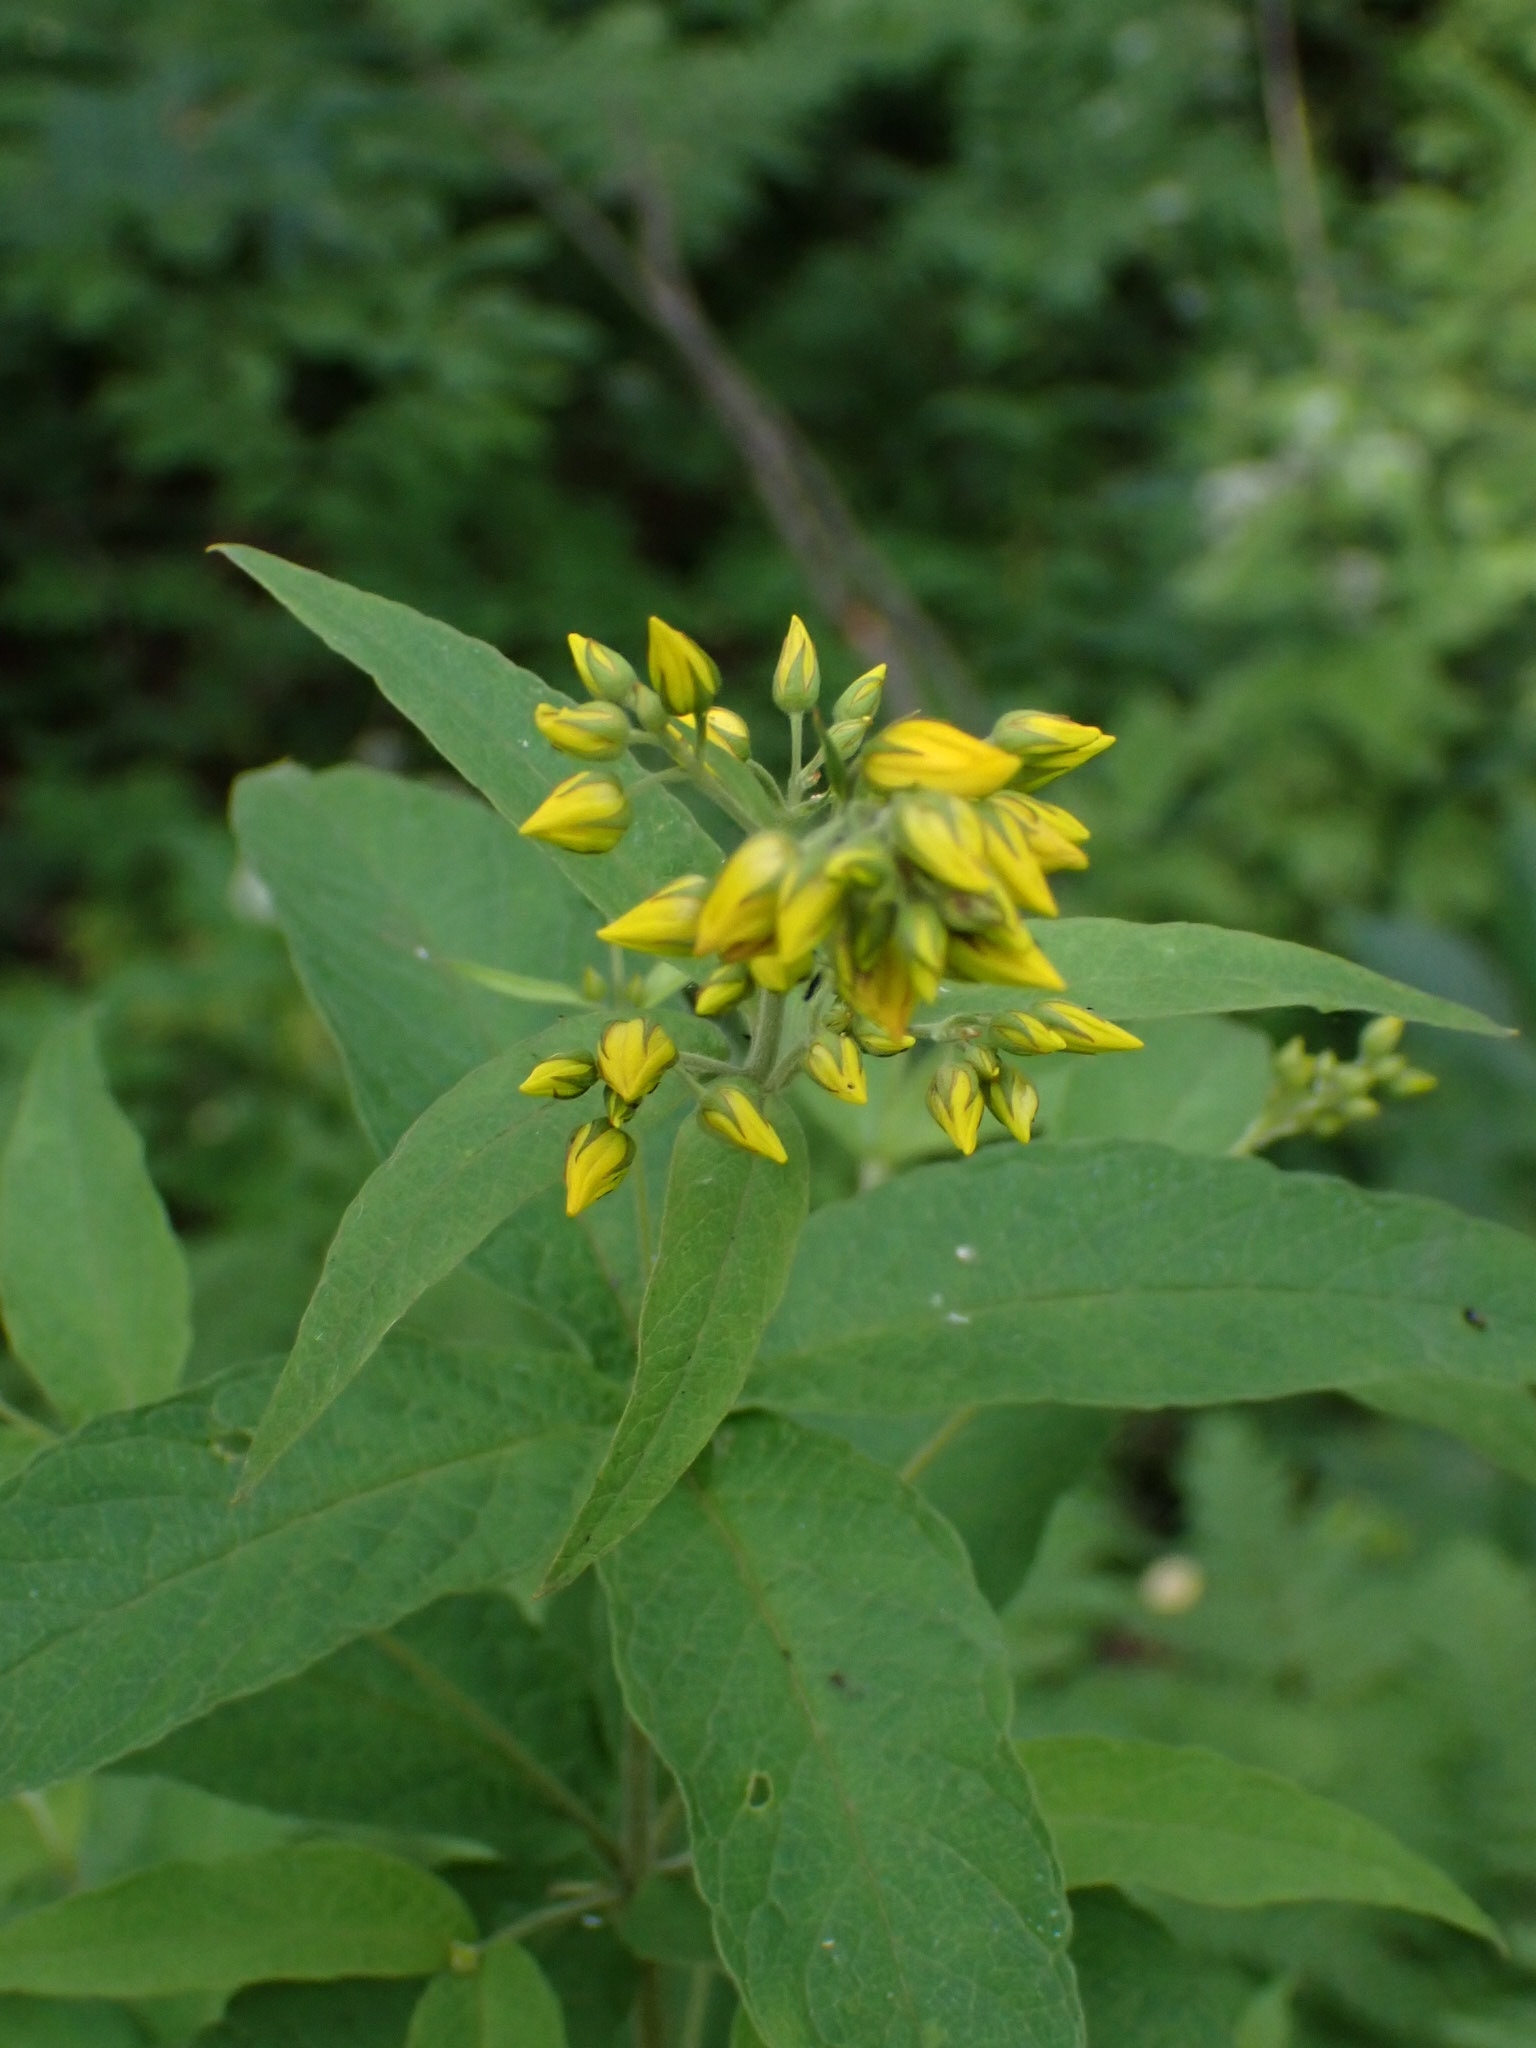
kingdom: Plantae
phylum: Tracheophyta
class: Magnoliopsida
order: Ericales
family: Primulaceae
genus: Lysimachia
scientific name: Lysimachia vulgaris
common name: Yellow loosestrife
